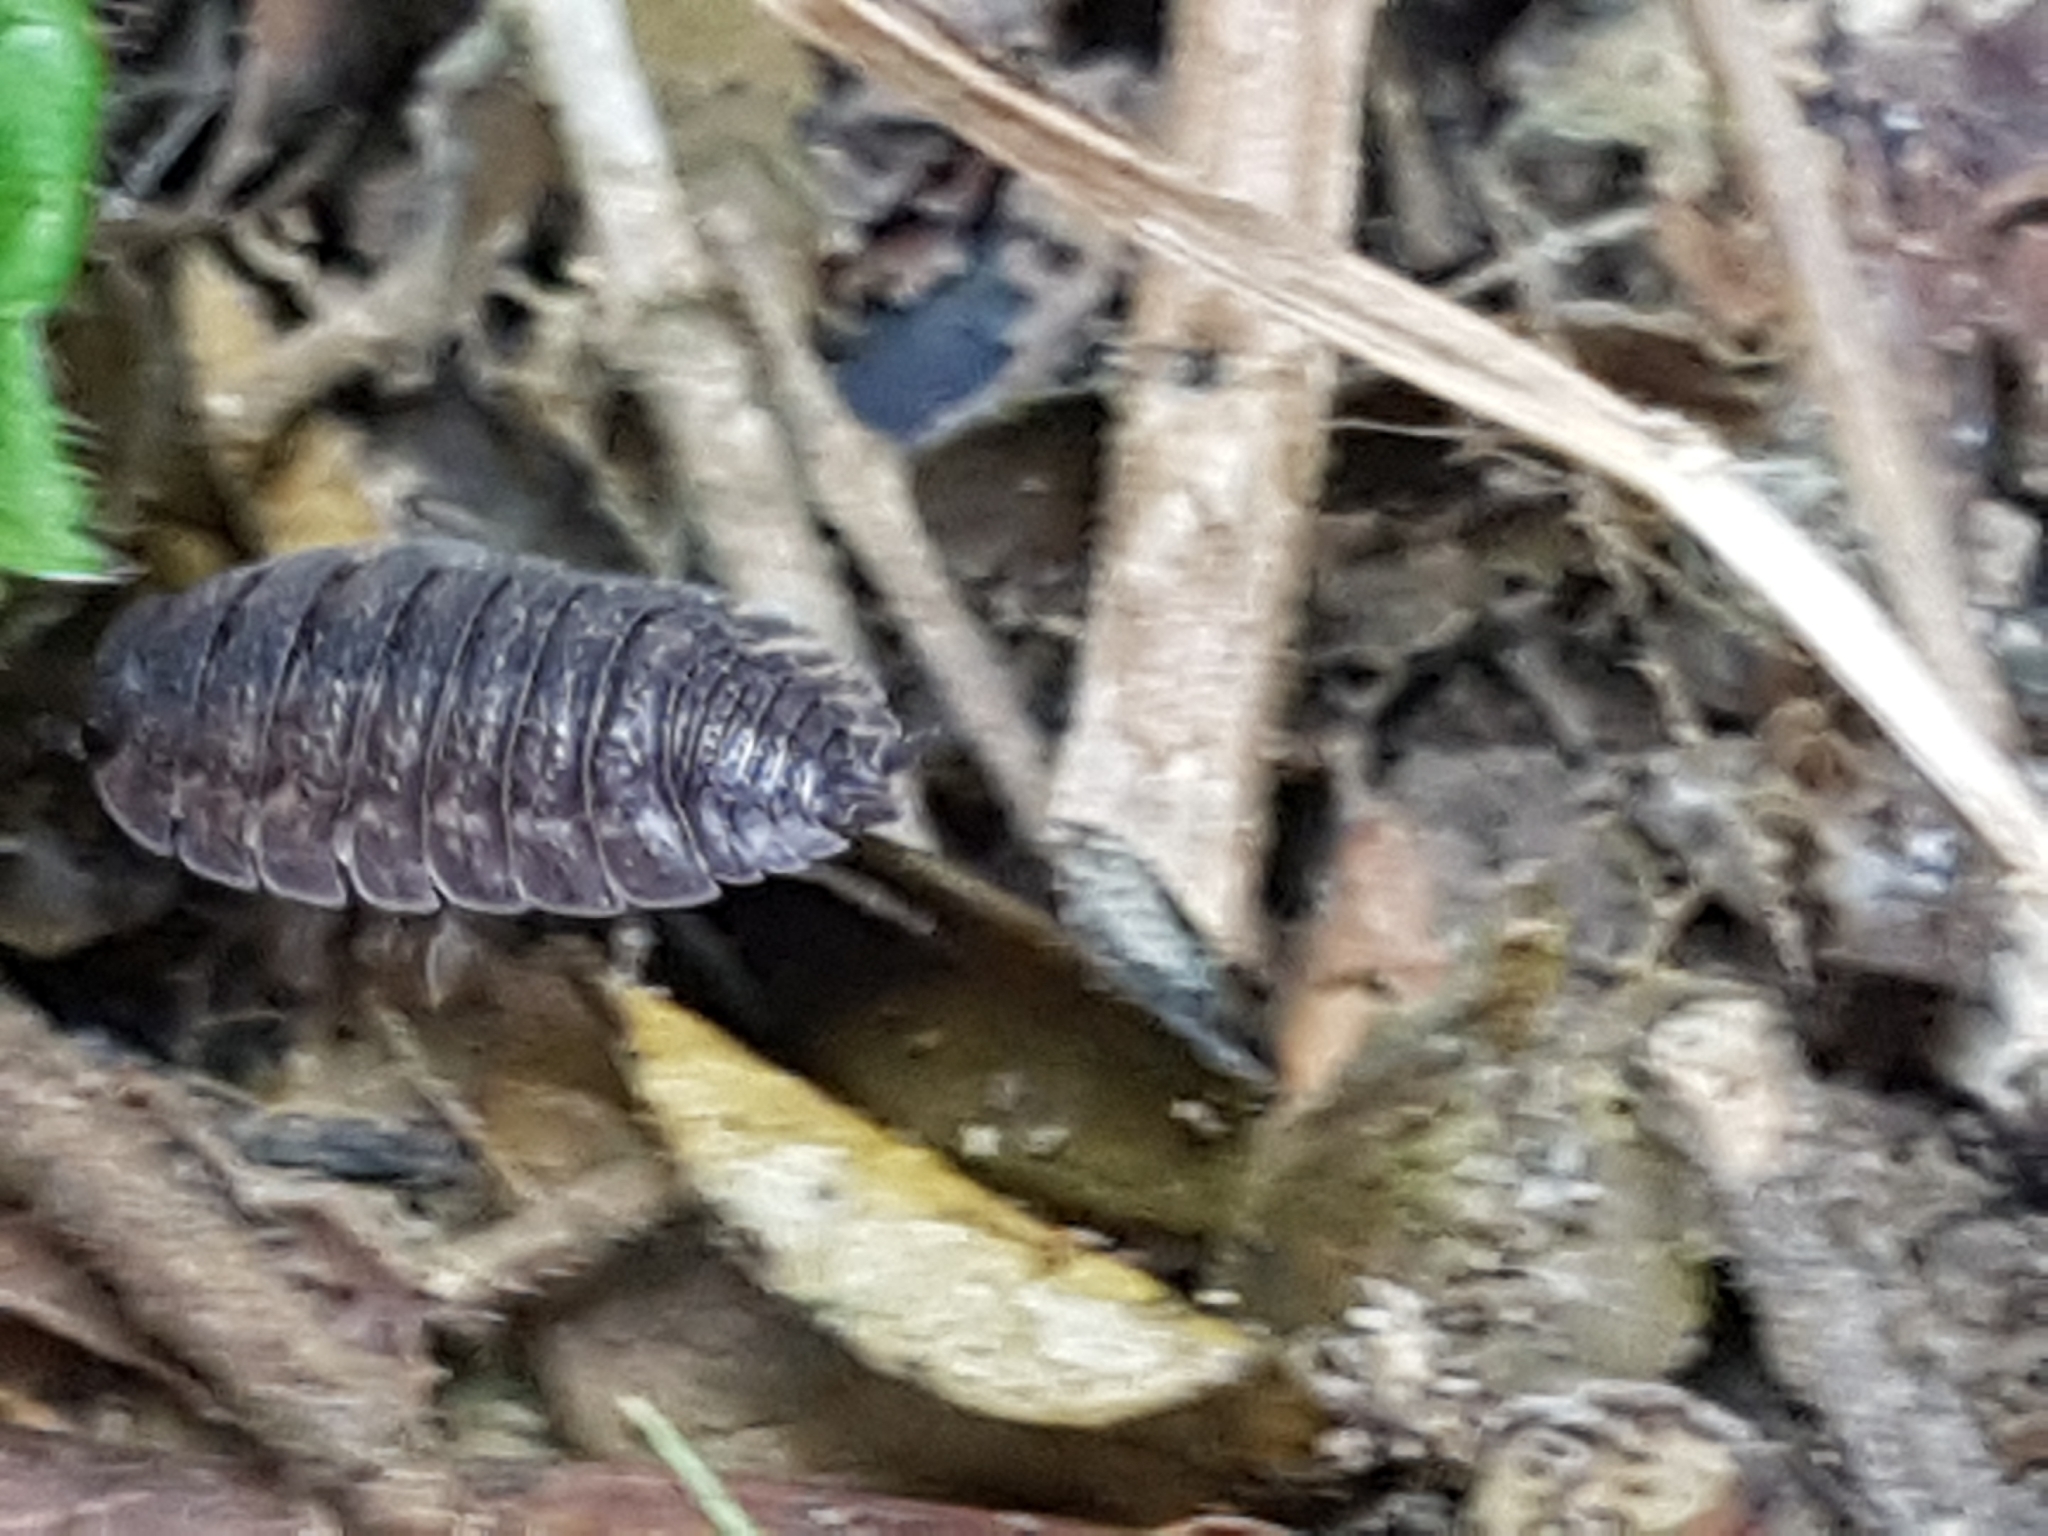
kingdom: Animalia
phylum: Arthropoda
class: Malacostraca
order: Isopoda
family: Porcellionidae
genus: Porcellio
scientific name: Porcellio scaber
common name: Common rough woodlouse
